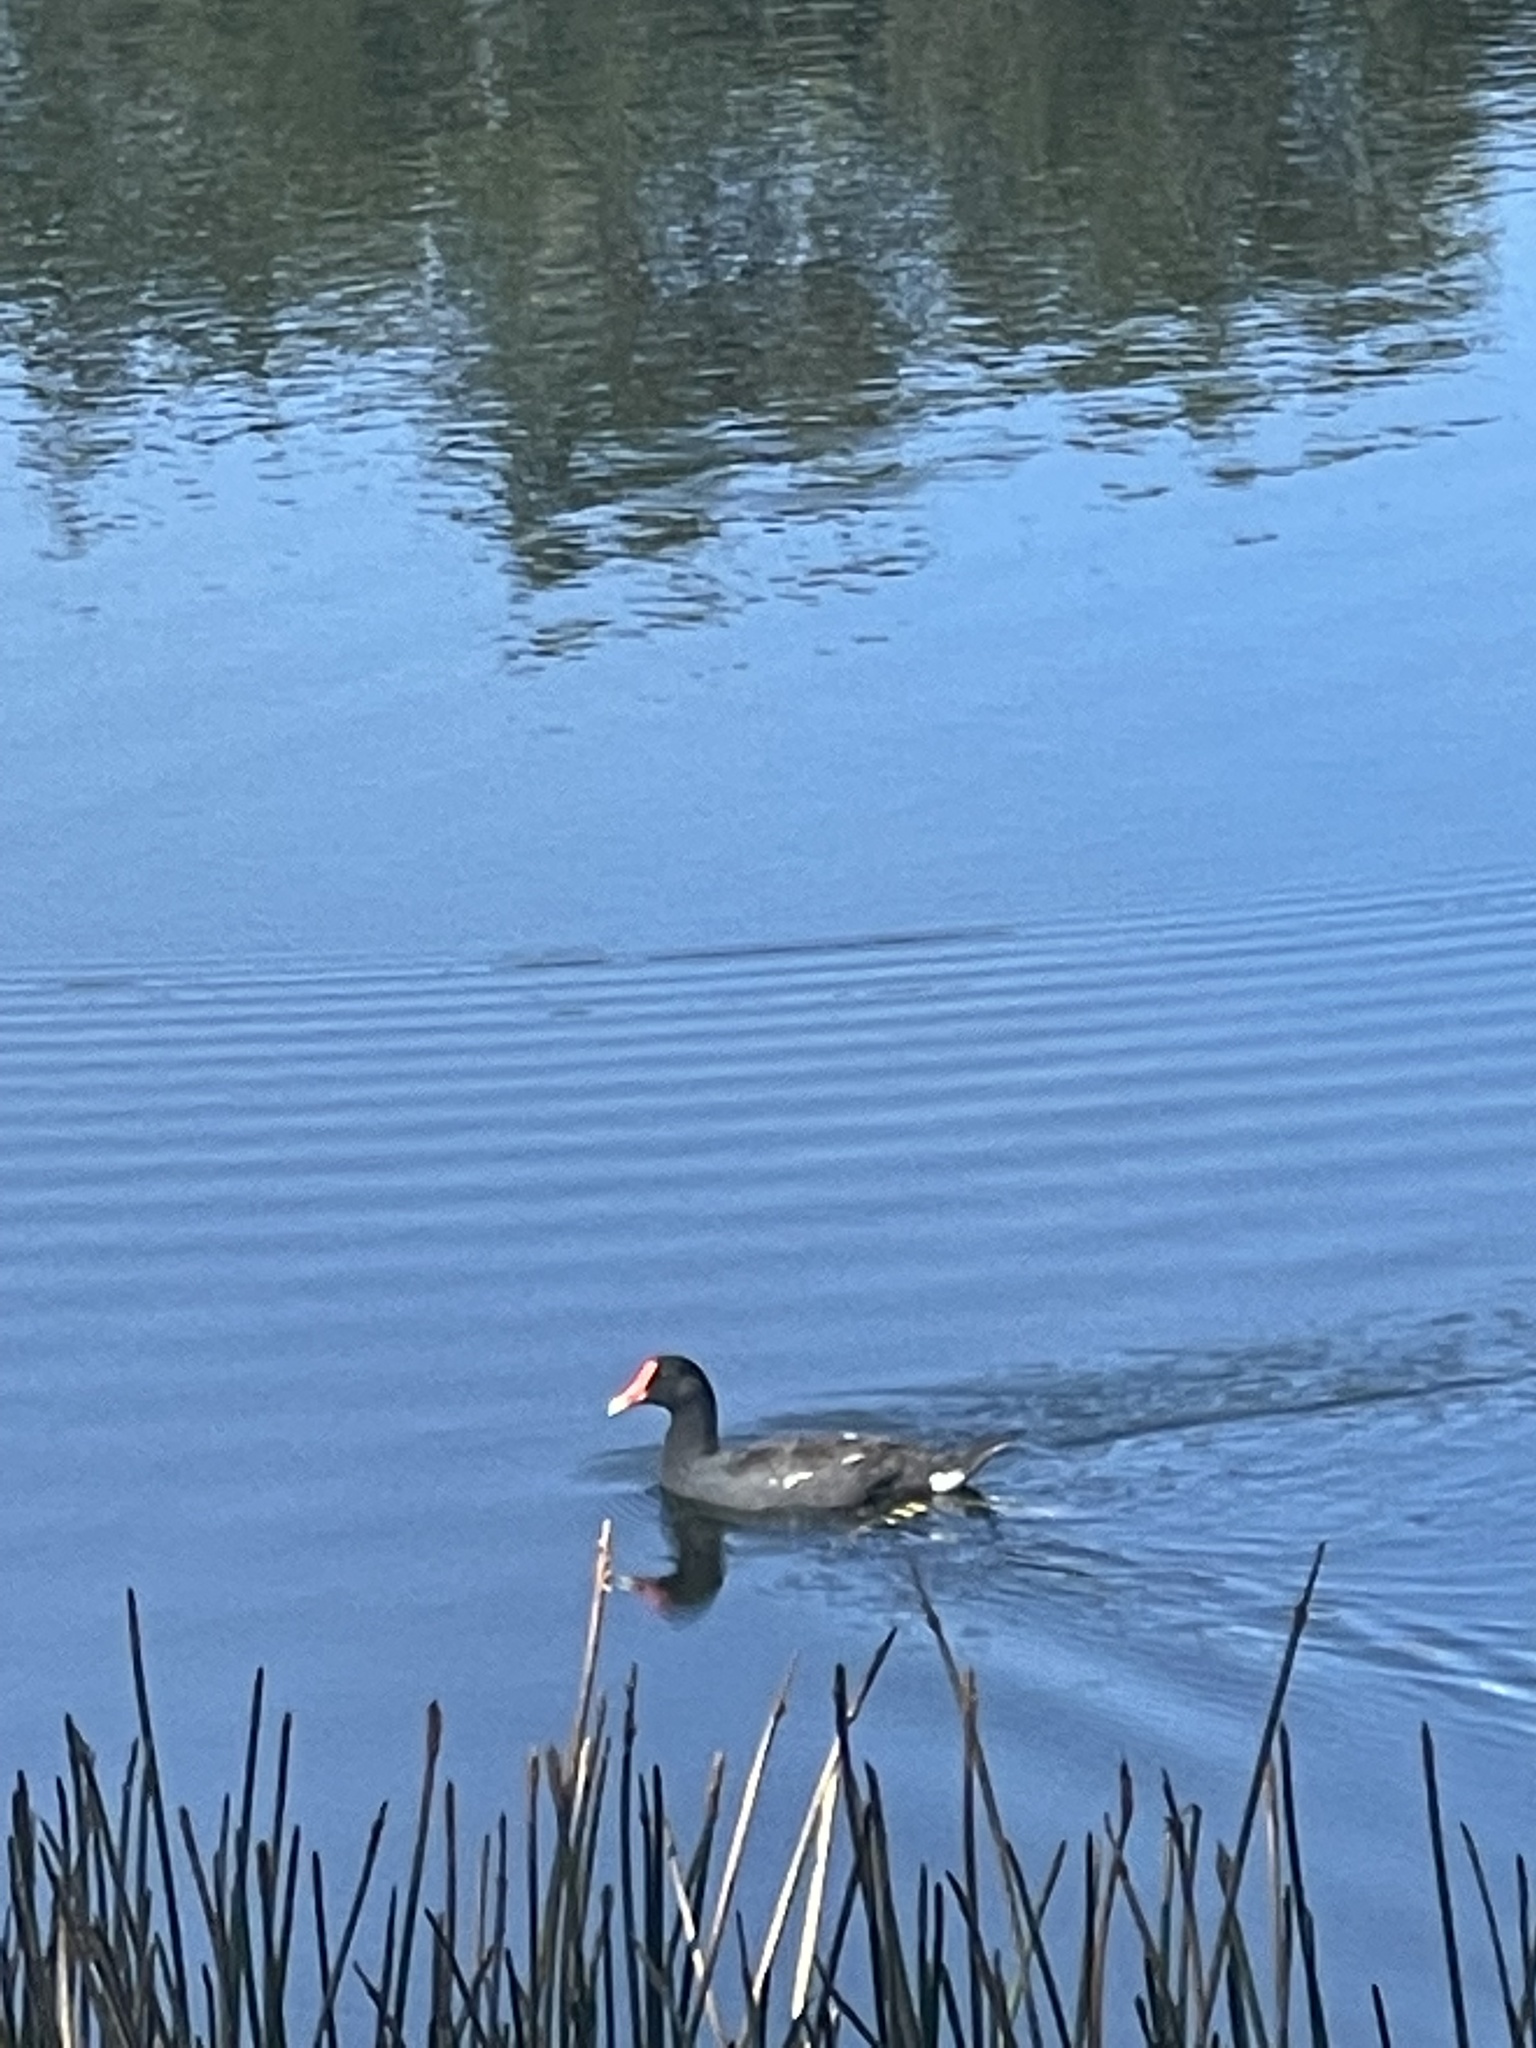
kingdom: Animalia
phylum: Chordata
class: Aves
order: Gruiformes
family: Rallidae
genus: Gallinula
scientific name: Gallinula chloropus
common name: Common moorhen
